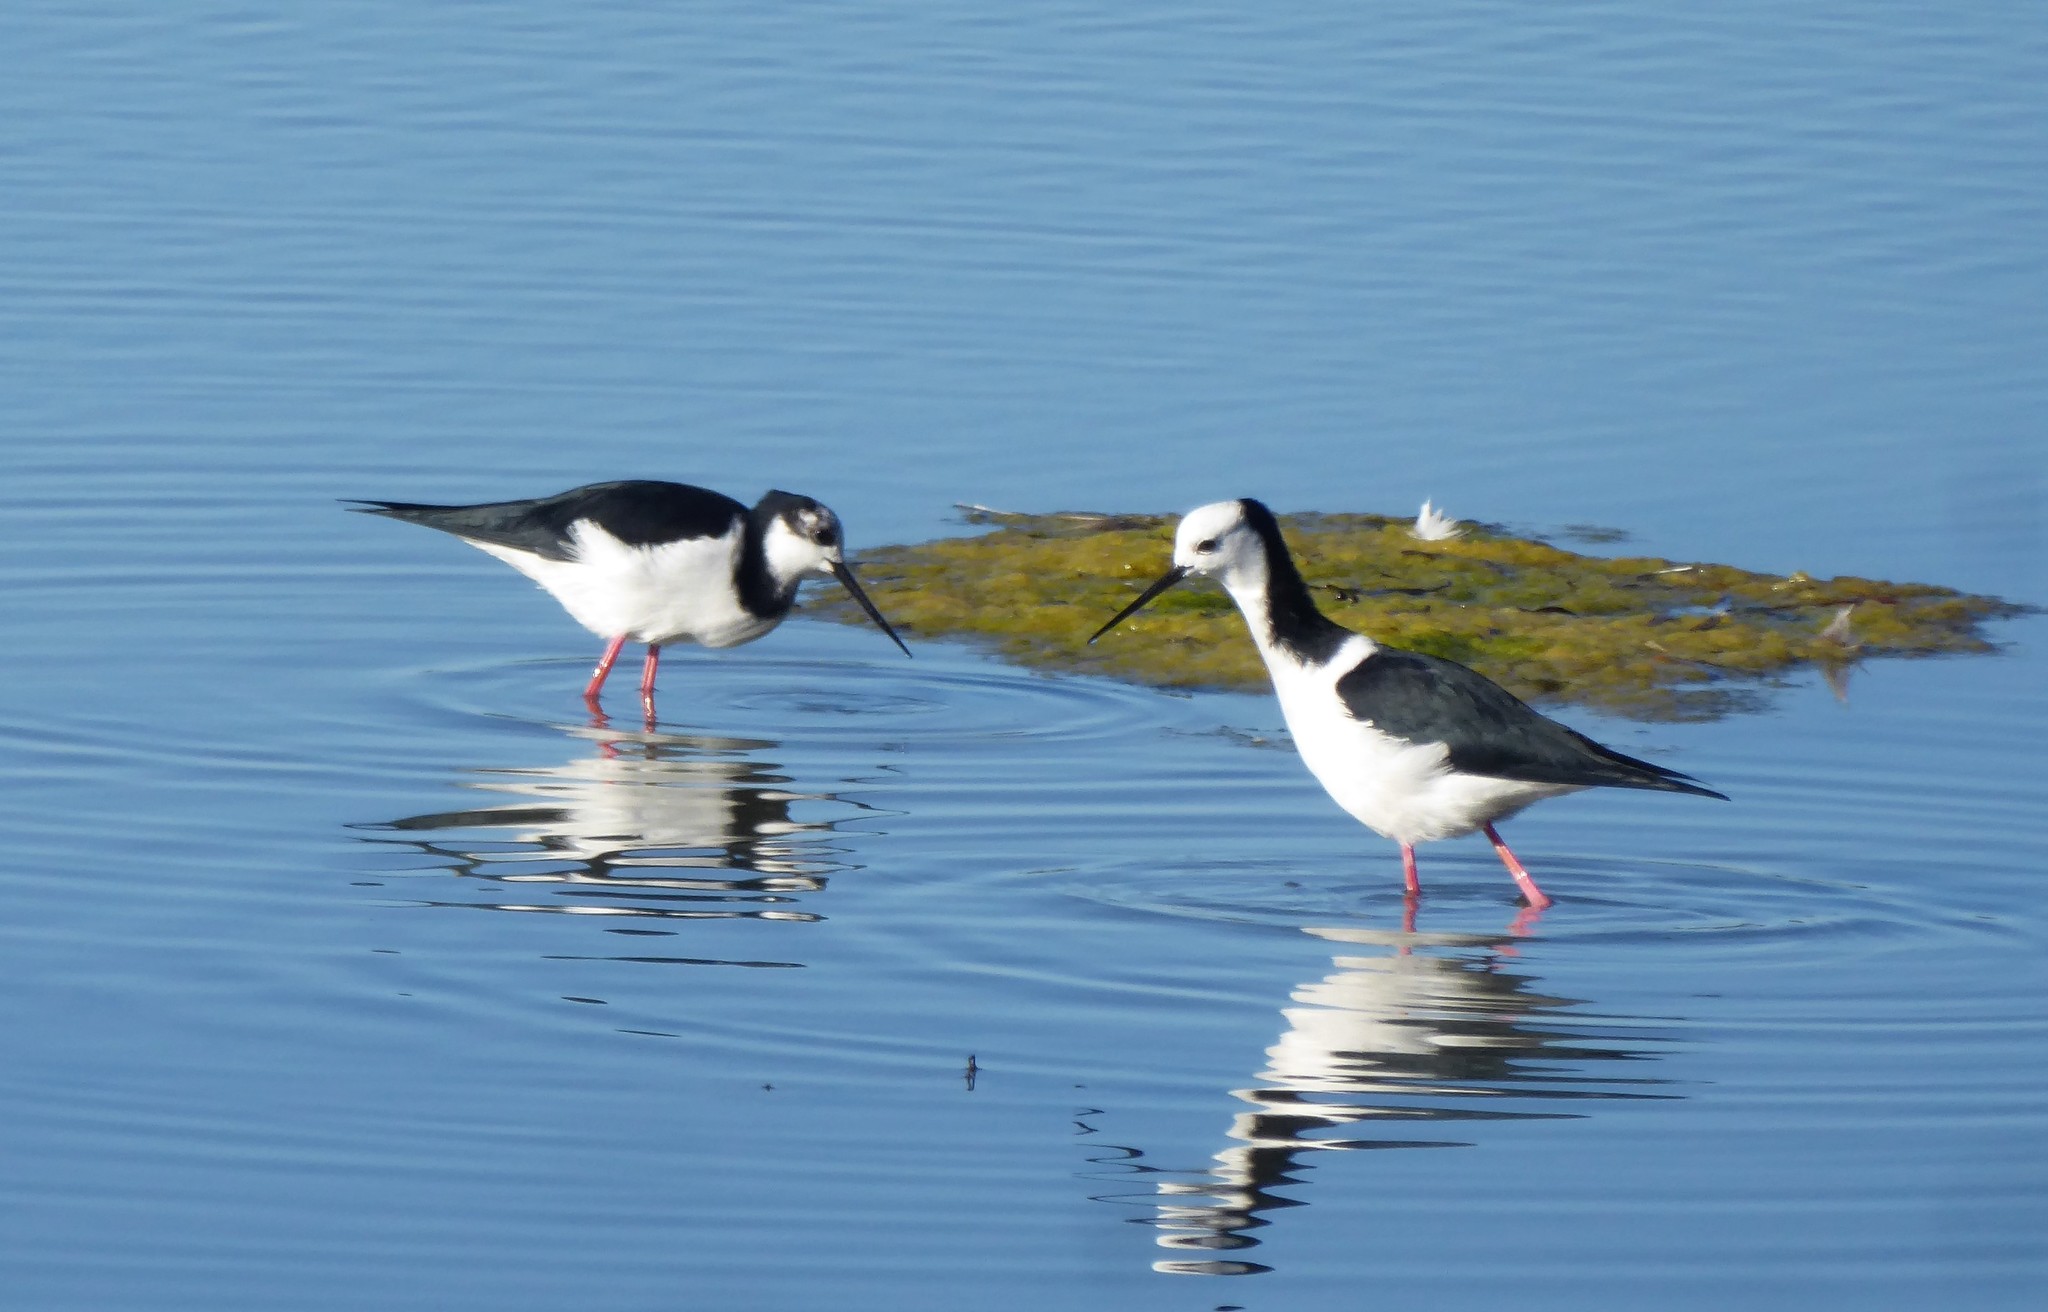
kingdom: Animalia
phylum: Chordata
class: Aves
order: Charadriiformes
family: Recurvirostridae
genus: Himantopus
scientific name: Himantopus leucocephalus
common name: White-headed stilt
